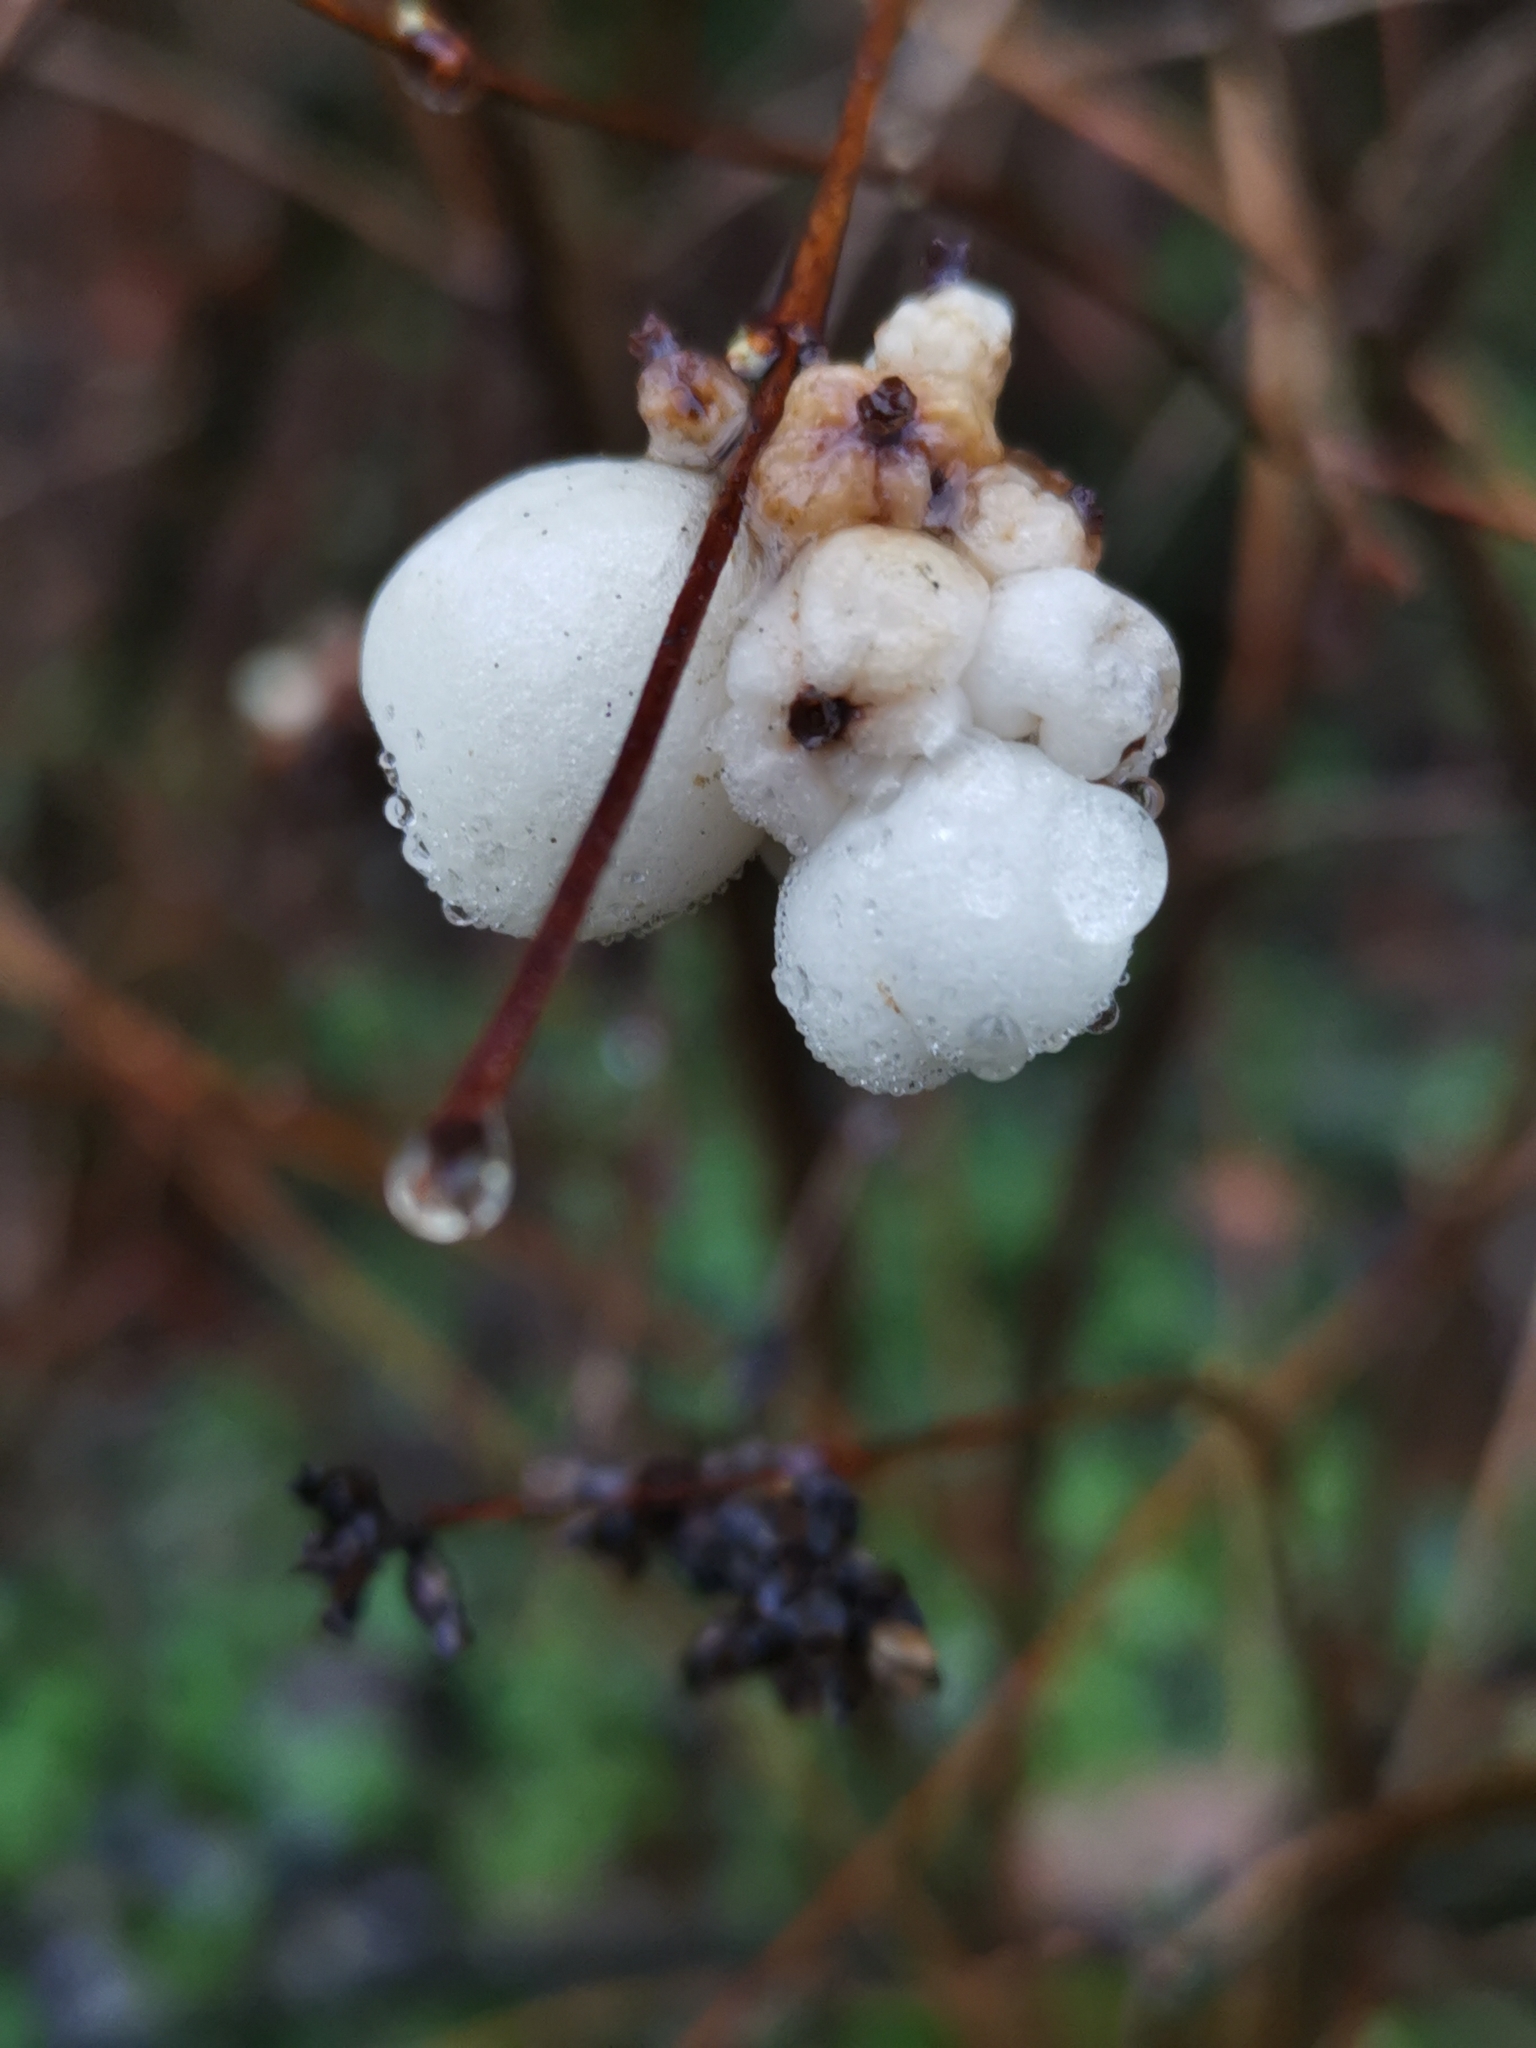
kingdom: Plantae
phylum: Tracheophyta
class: Magnoliopsida
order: Dipsacales
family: Caprifoliaceae
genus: Symphoricarpos
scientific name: Symphoricarpos albus
